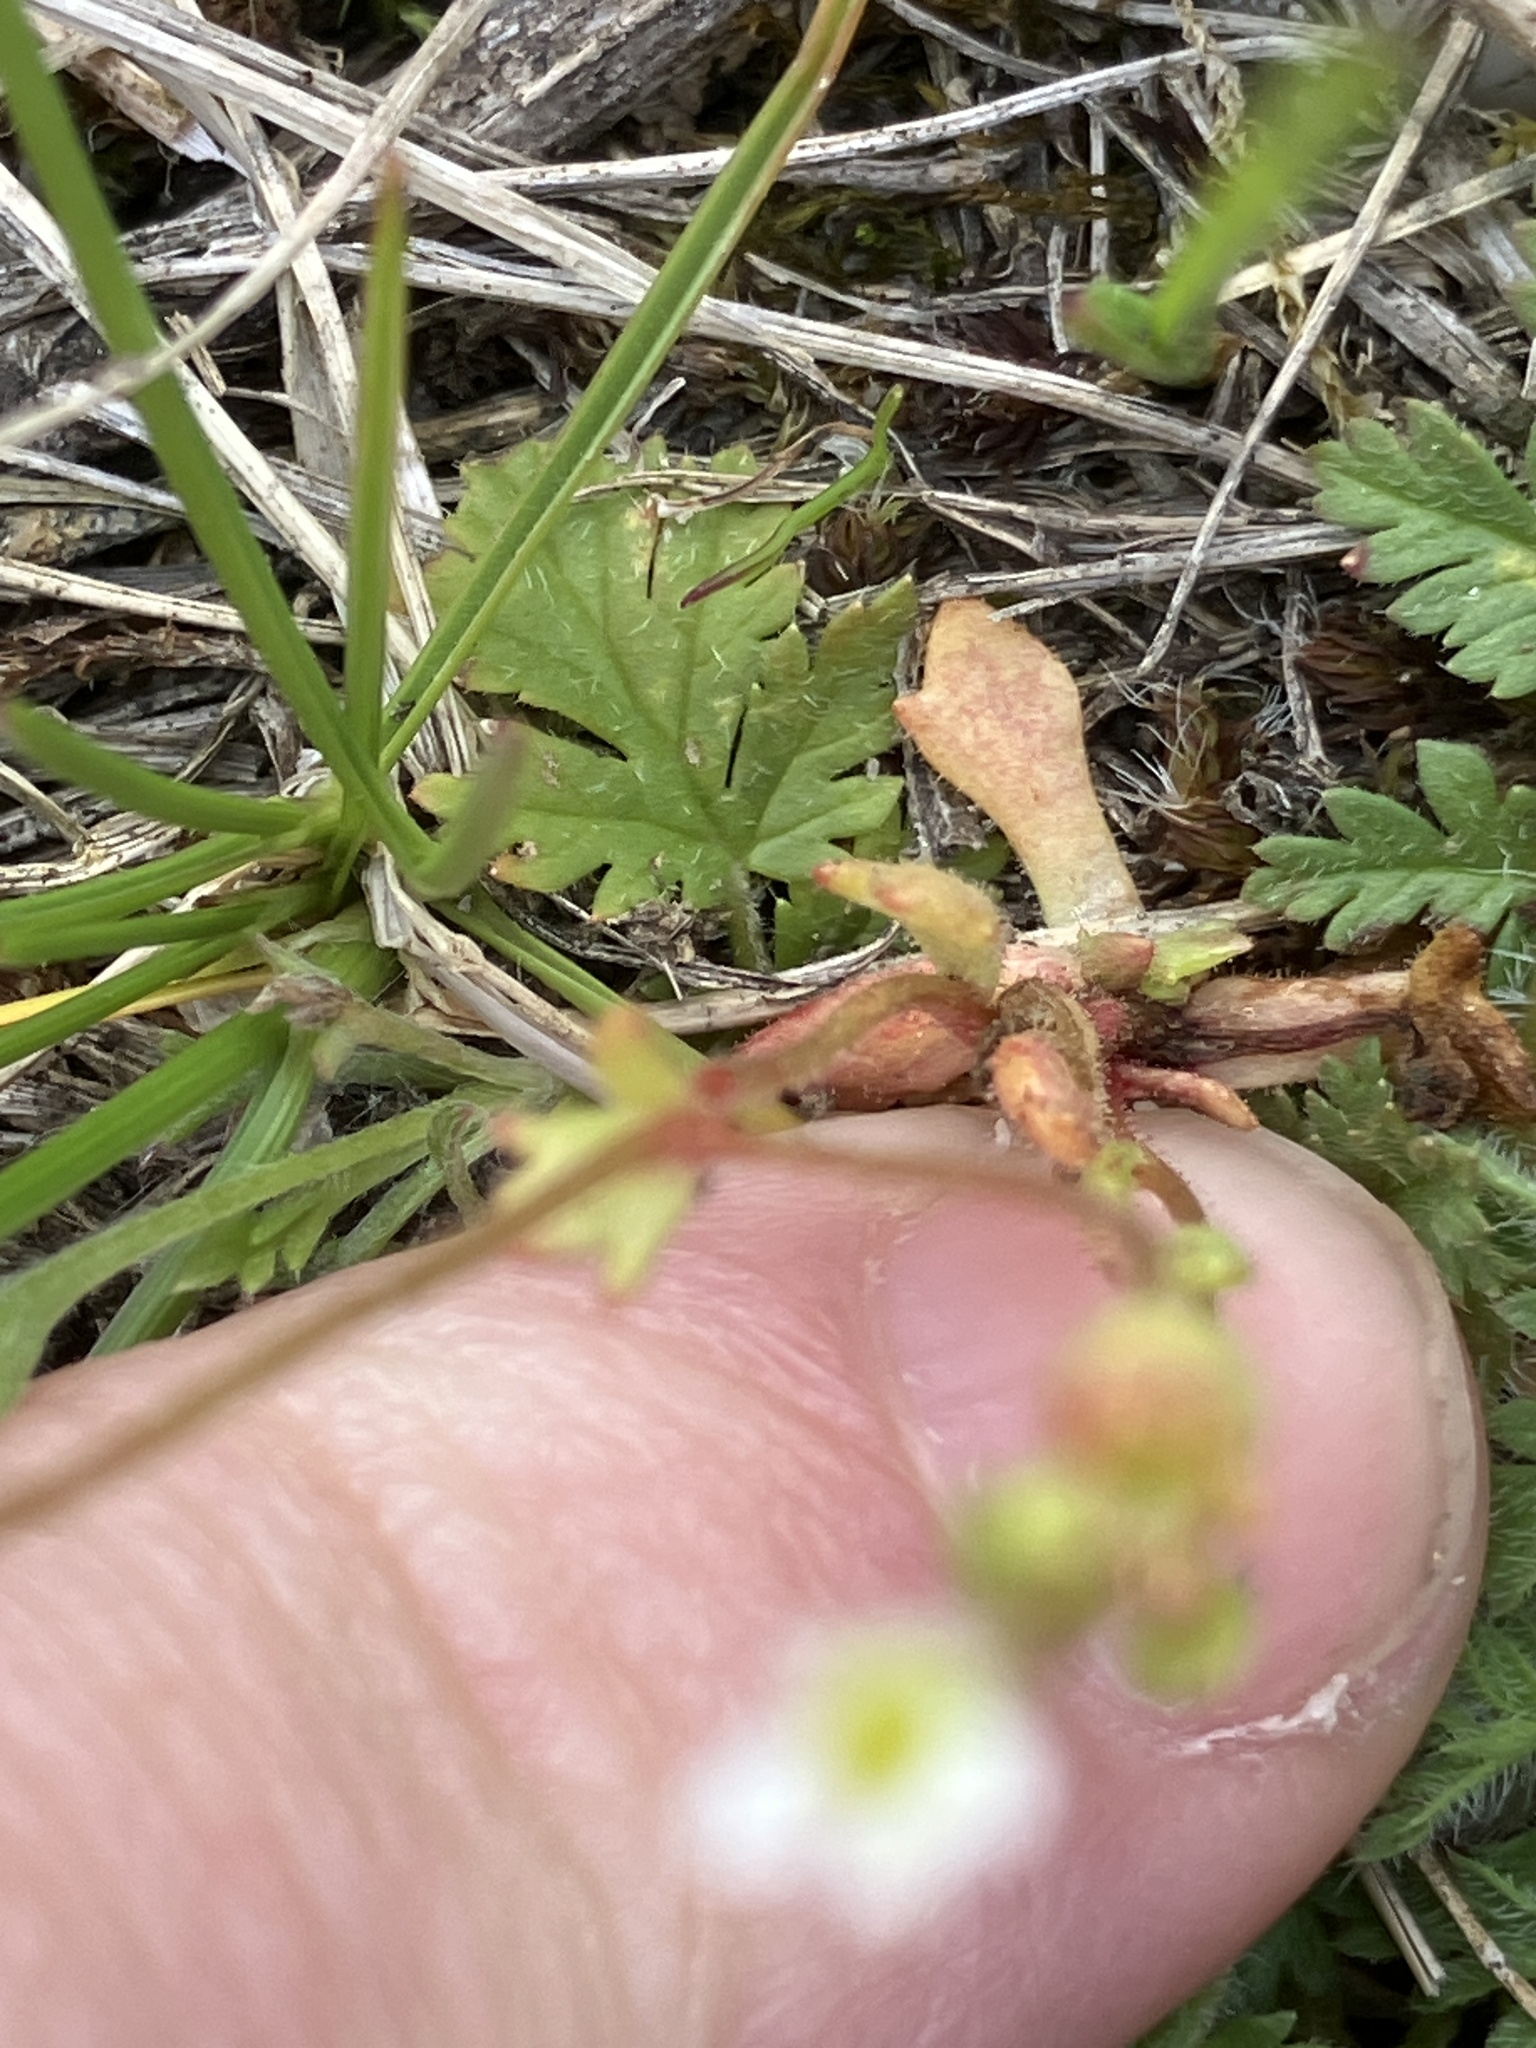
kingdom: Plantae
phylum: Tracheophyta
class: Magnoliopsida
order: Saxifragales
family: Saxifragaceae
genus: Saxifraga
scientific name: Saxifraga tridactylites
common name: Rue-leaved saxifrage
